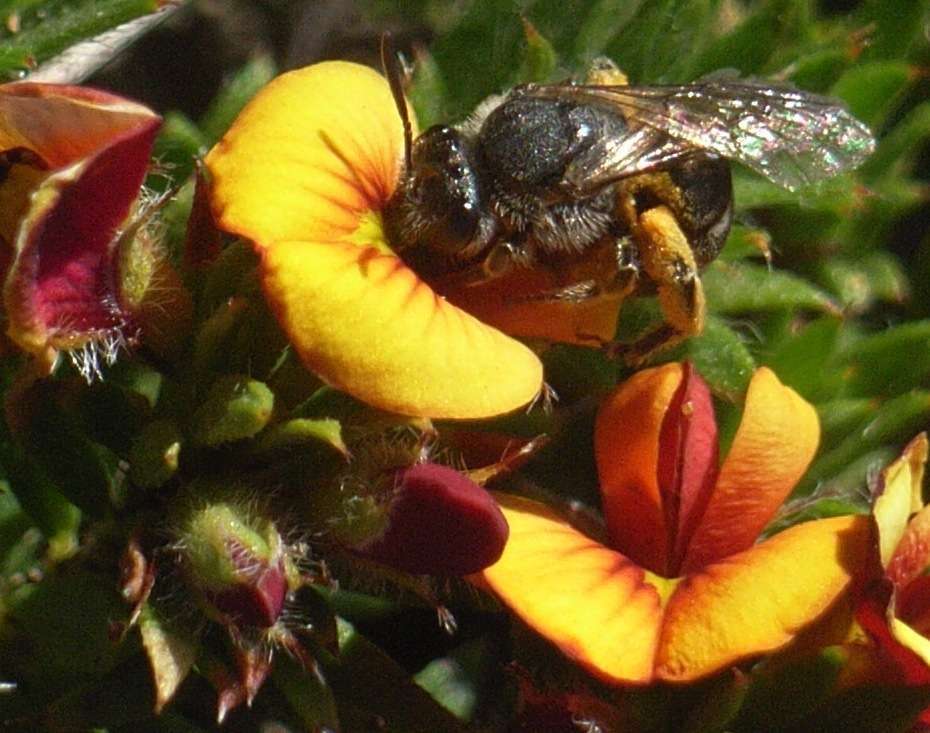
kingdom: Plantae
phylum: Tracheophyta
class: Magnoliopsida
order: Fabales
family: Fabaceae
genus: Pultenaea
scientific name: Pultenaea pedunculata
